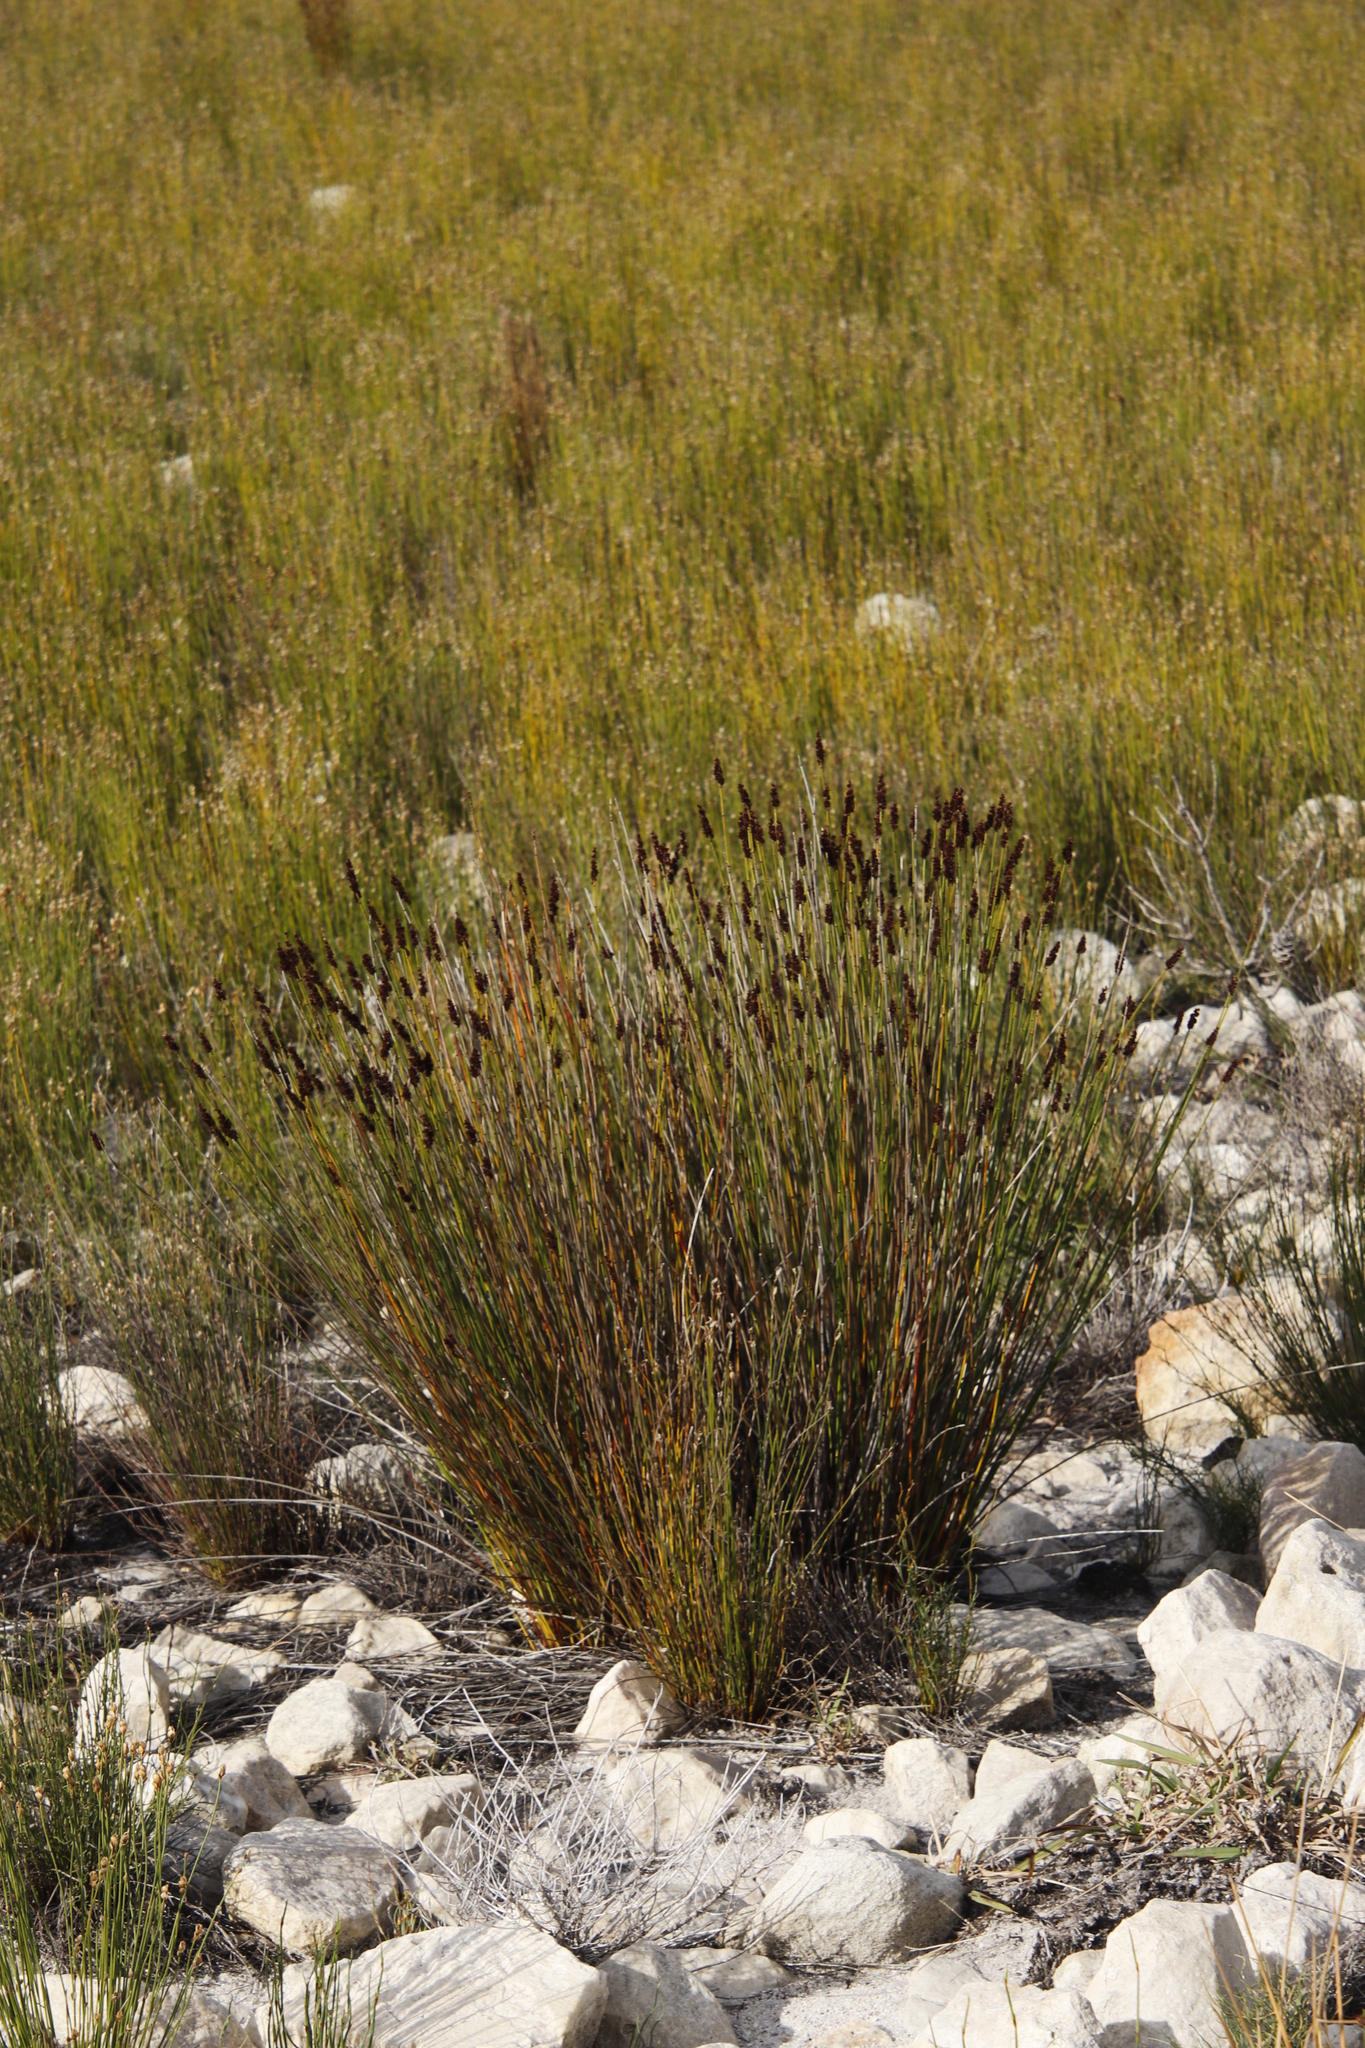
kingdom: Plantae
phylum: Tracheophyta
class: Liliopsida
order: Poales
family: Restionaceae
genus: Elegia
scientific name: Elegia tectorum
